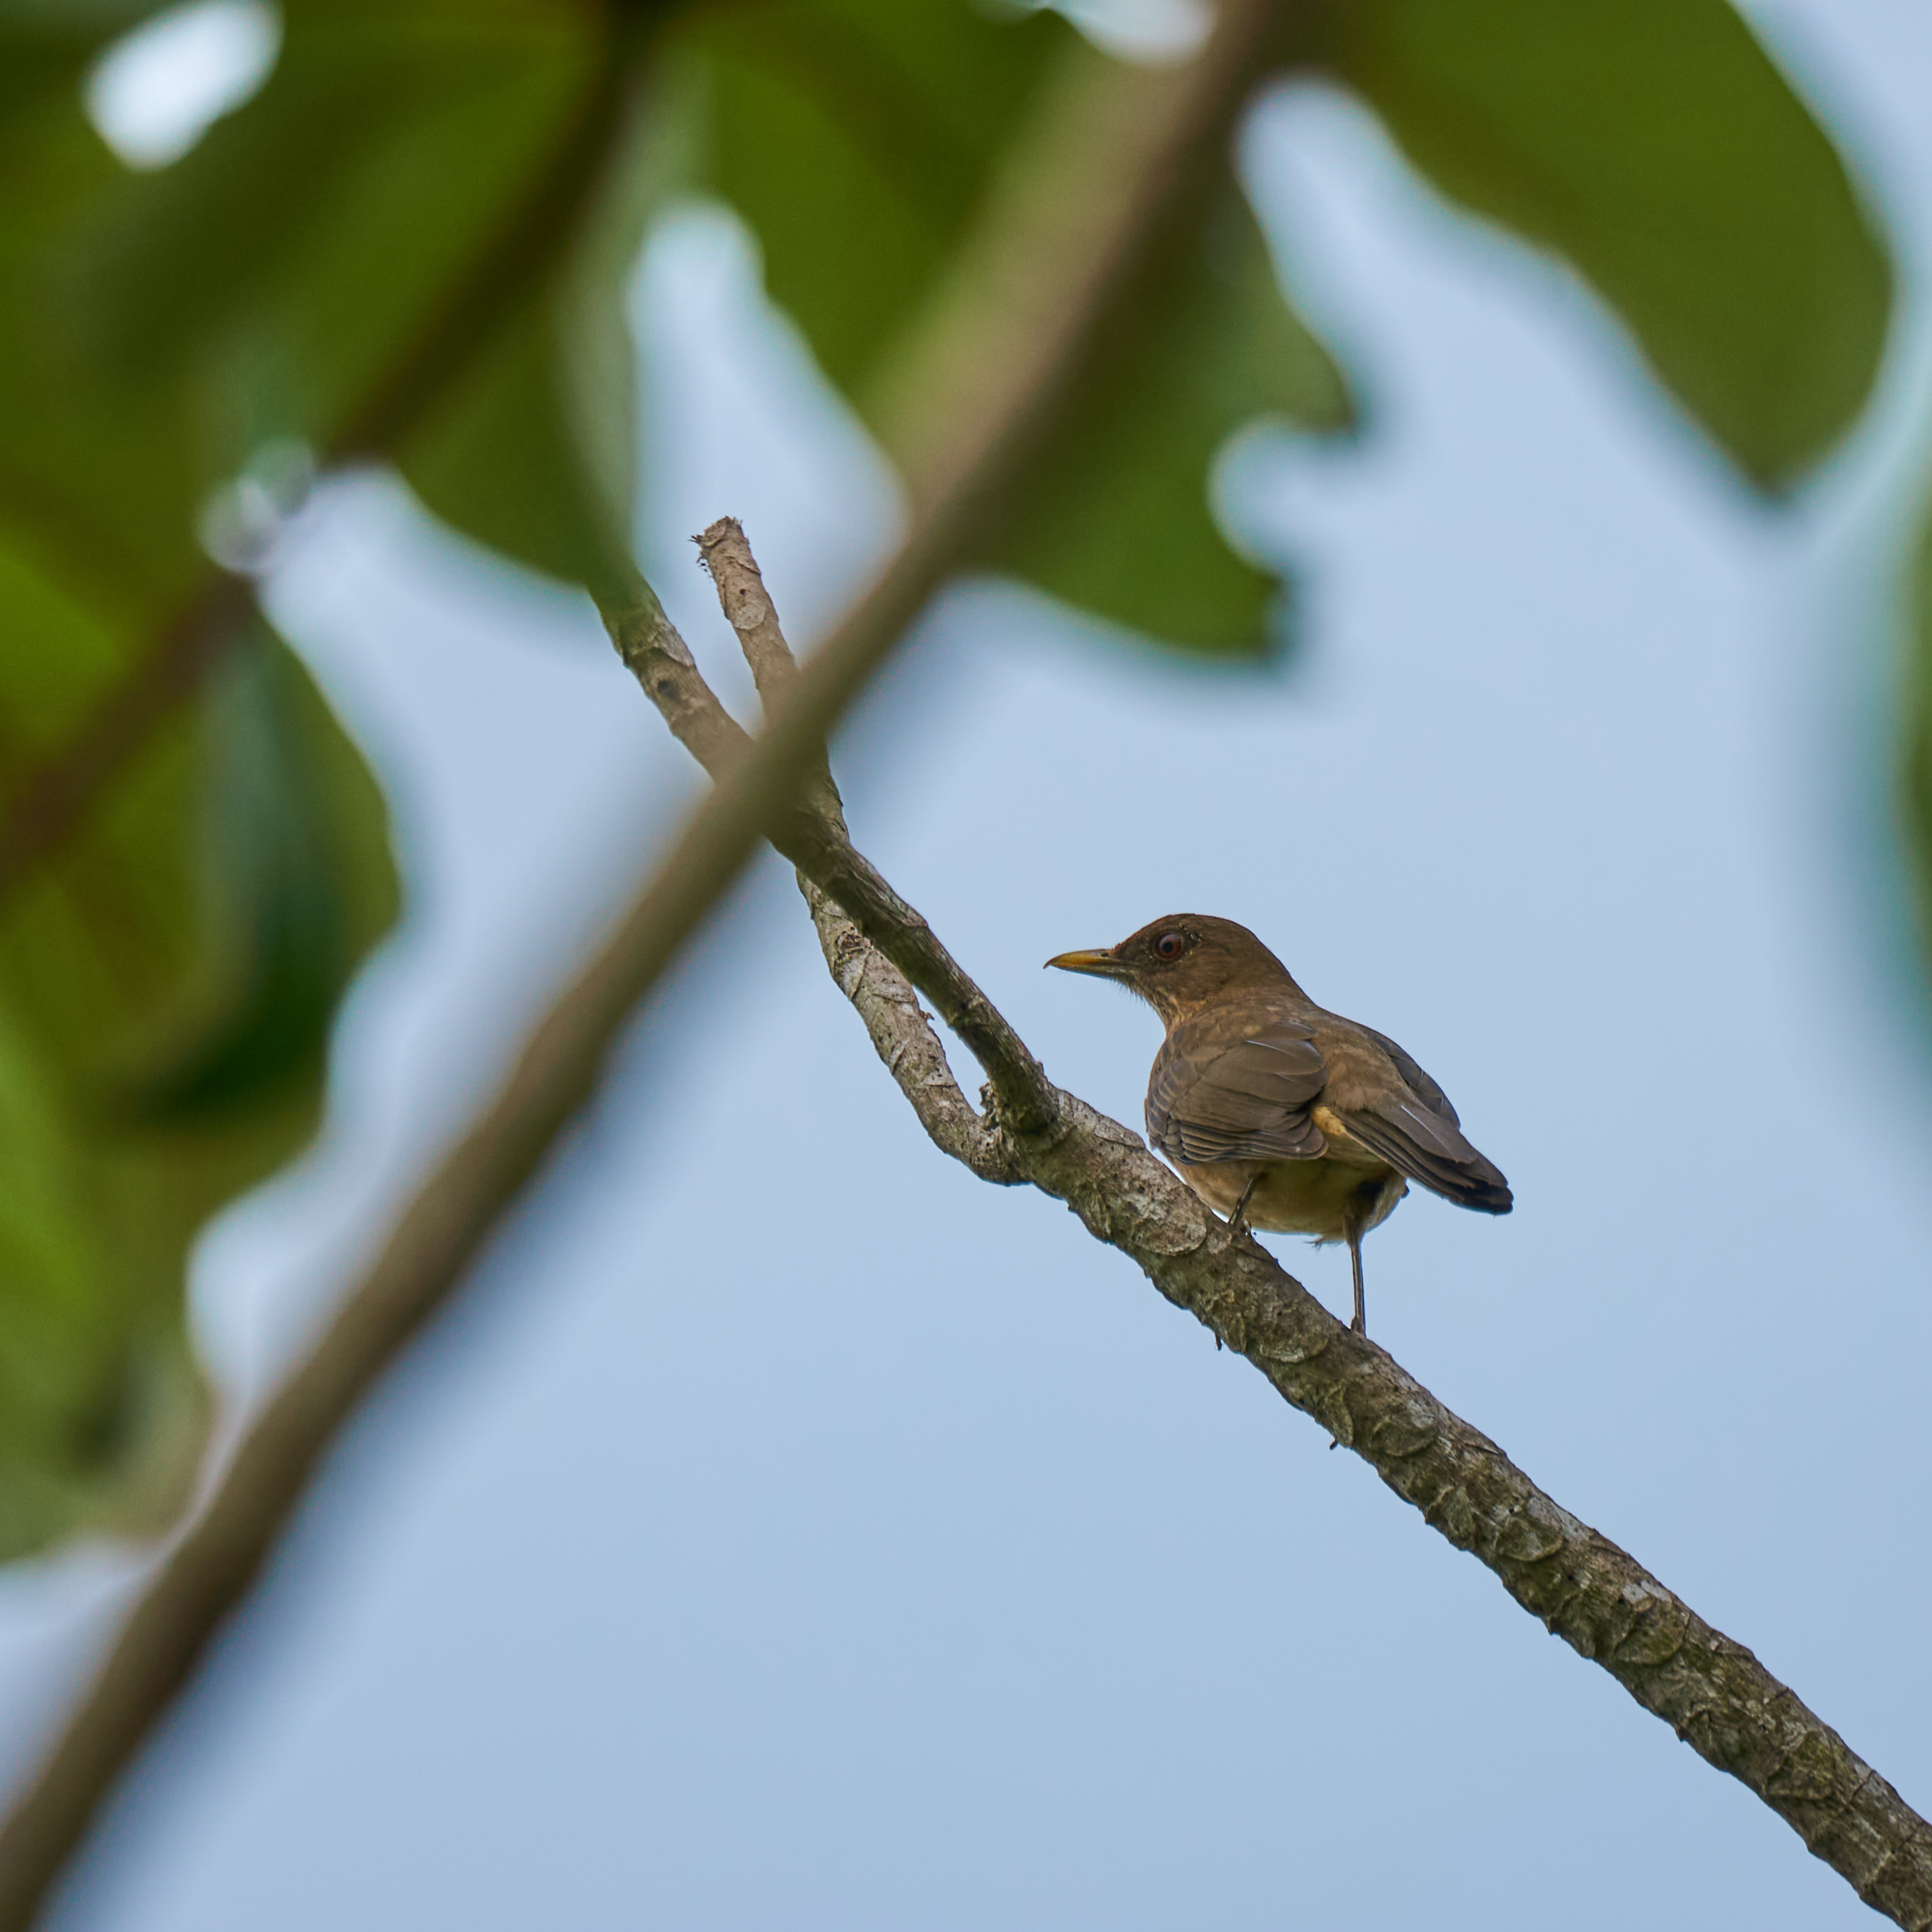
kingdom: Animalia
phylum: Chordata
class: Aves
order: Passeriformes
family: Turdidae
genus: Turdus
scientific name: Turdus grayi
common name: Clay-colored thrush
